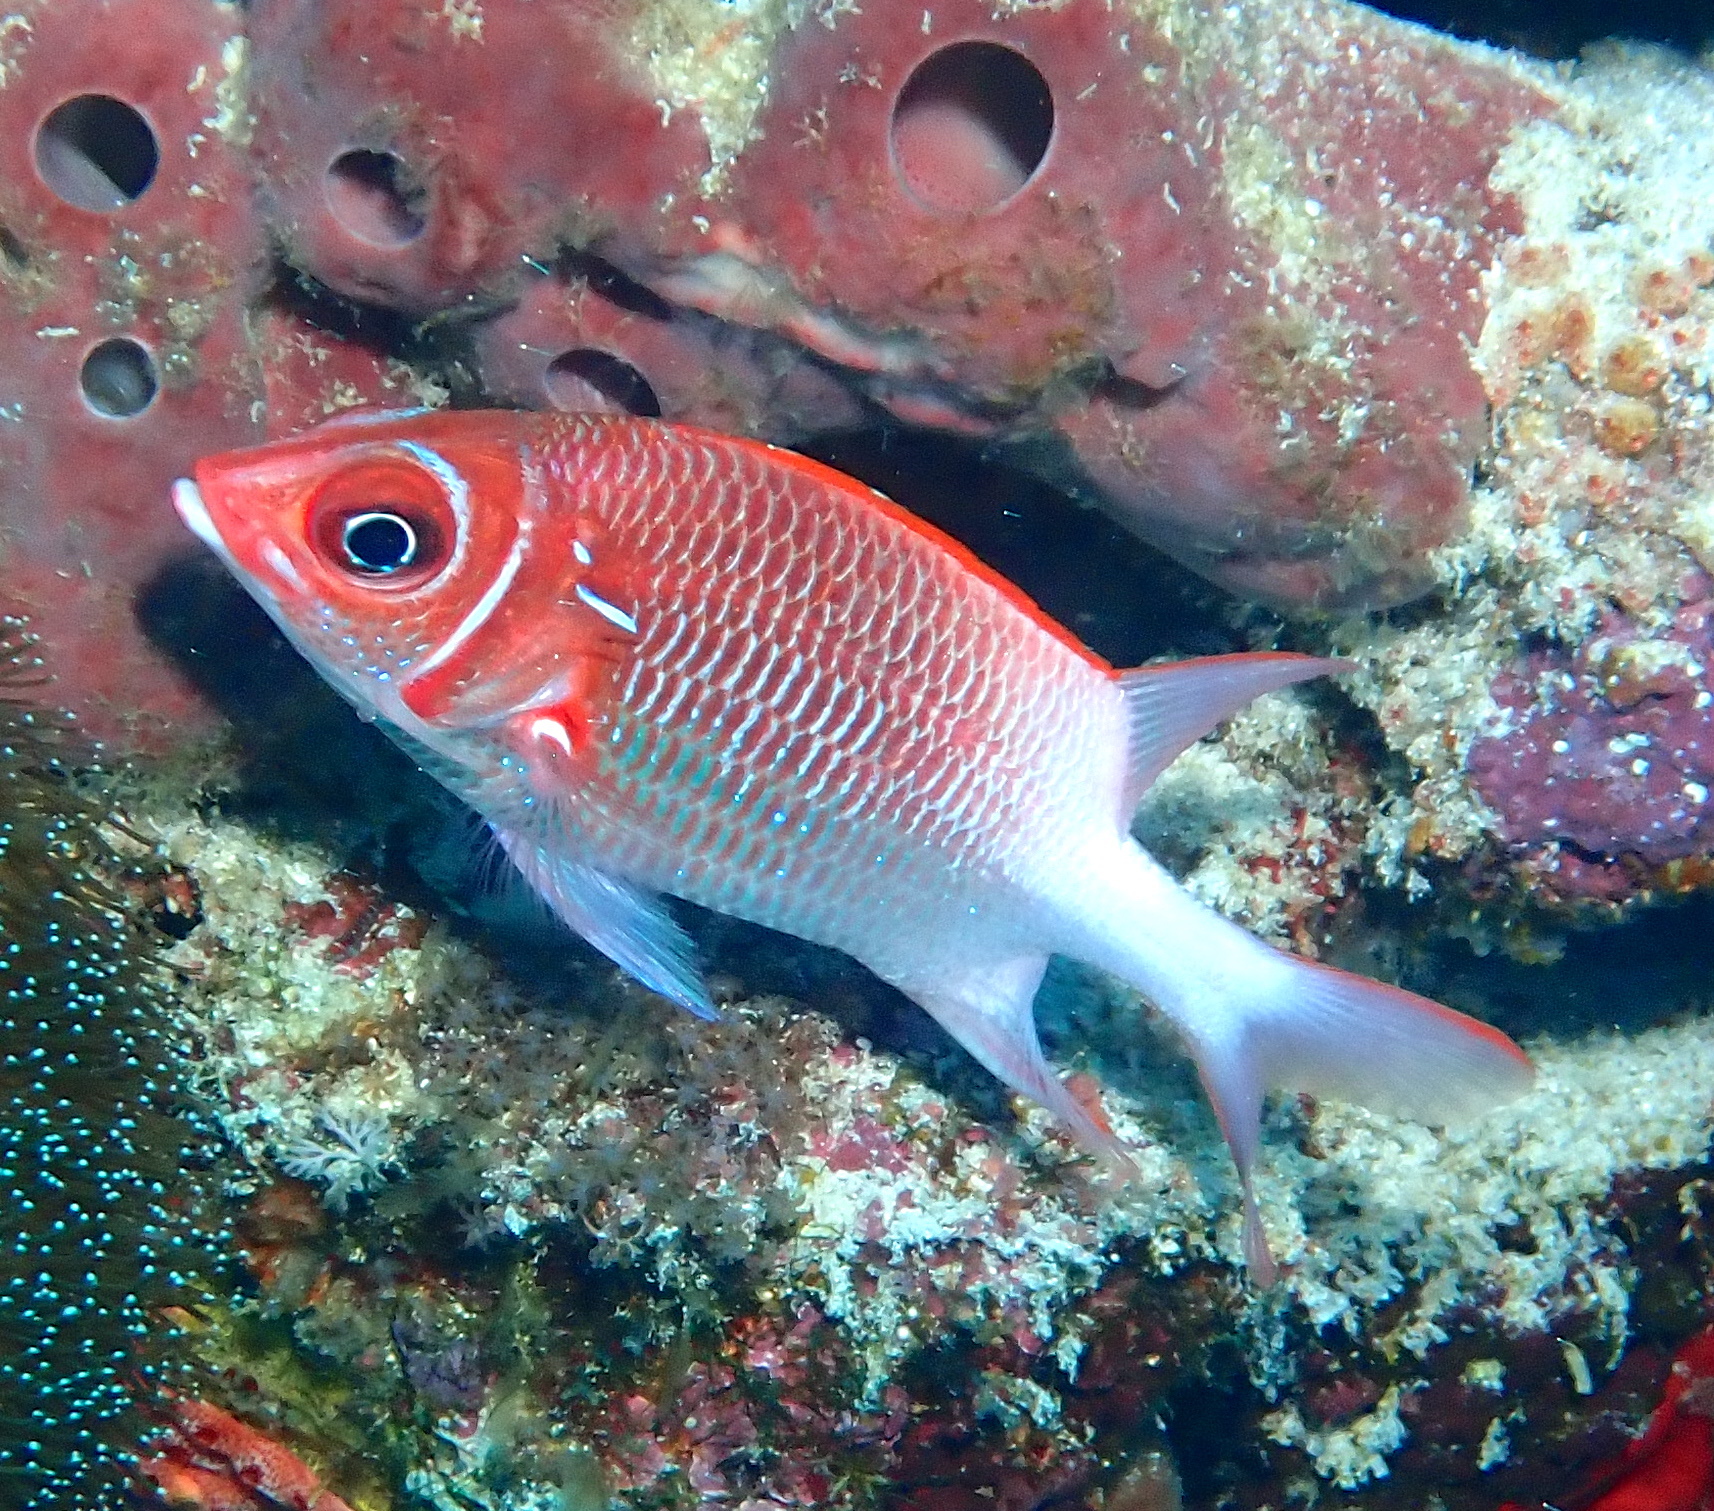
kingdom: Animalia
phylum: Chordata
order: Beryciformes
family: Holocentridae
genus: Sargocentron
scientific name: Sargocentron caudimaculatum
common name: Fanfin soldier
